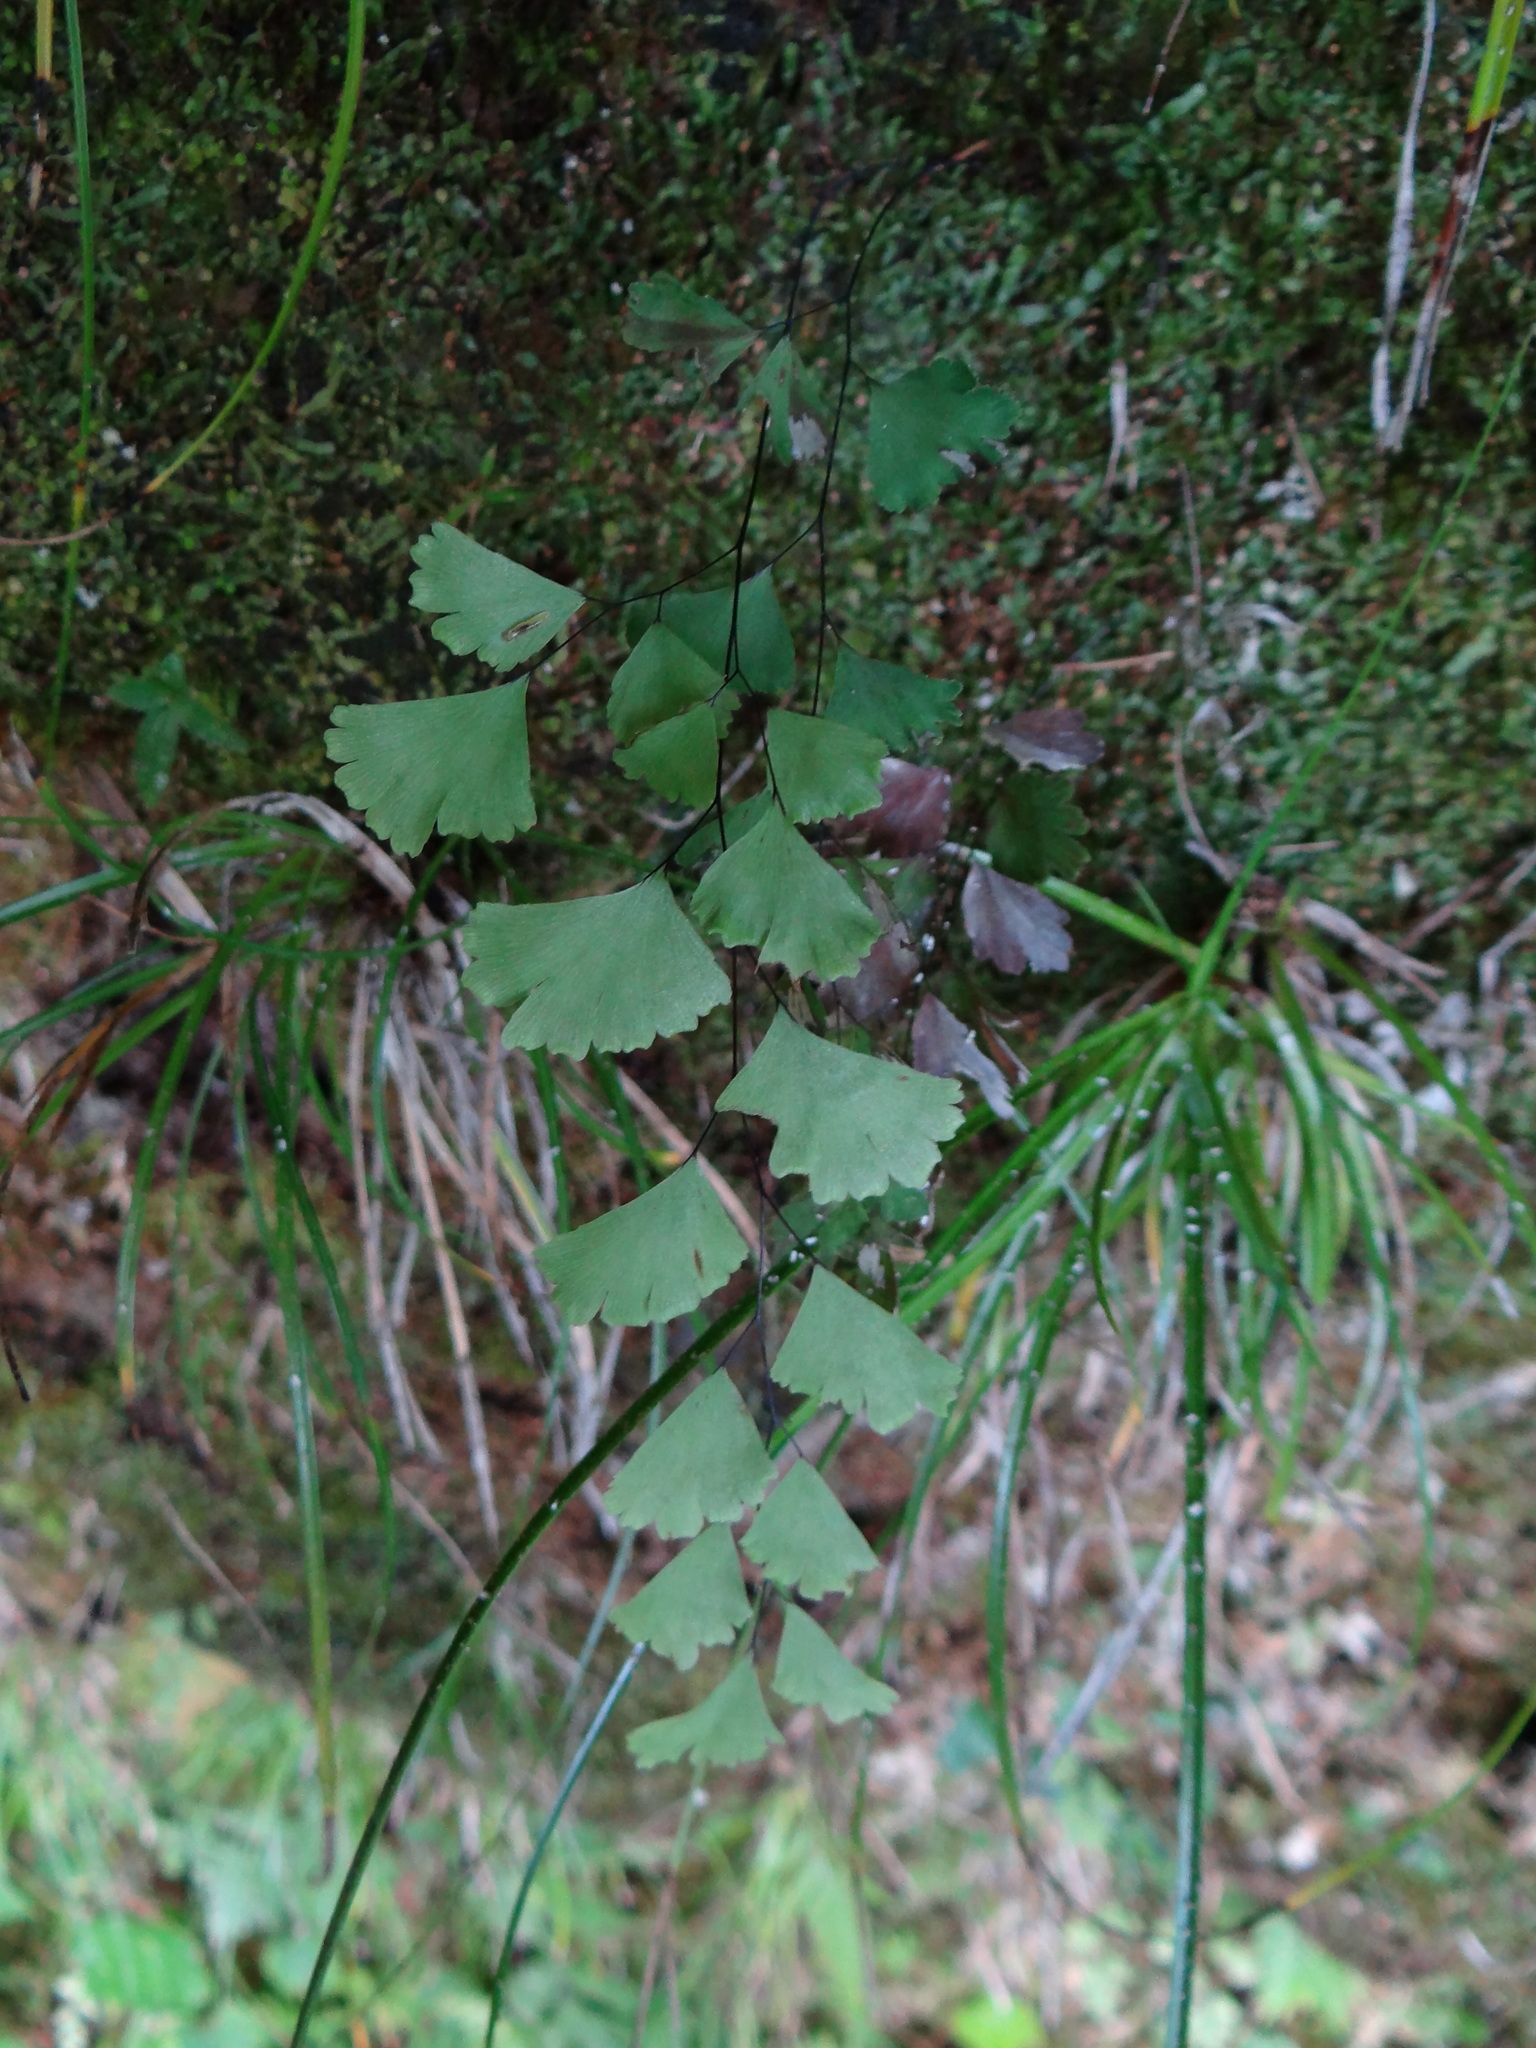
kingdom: Plantae
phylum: Tracheophyta
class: Polypodiopsida
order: Polypodiales
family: Pteridaceae
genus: Adiantum
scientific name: Adiantum capillus-veneris
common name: Maidenhair fern
